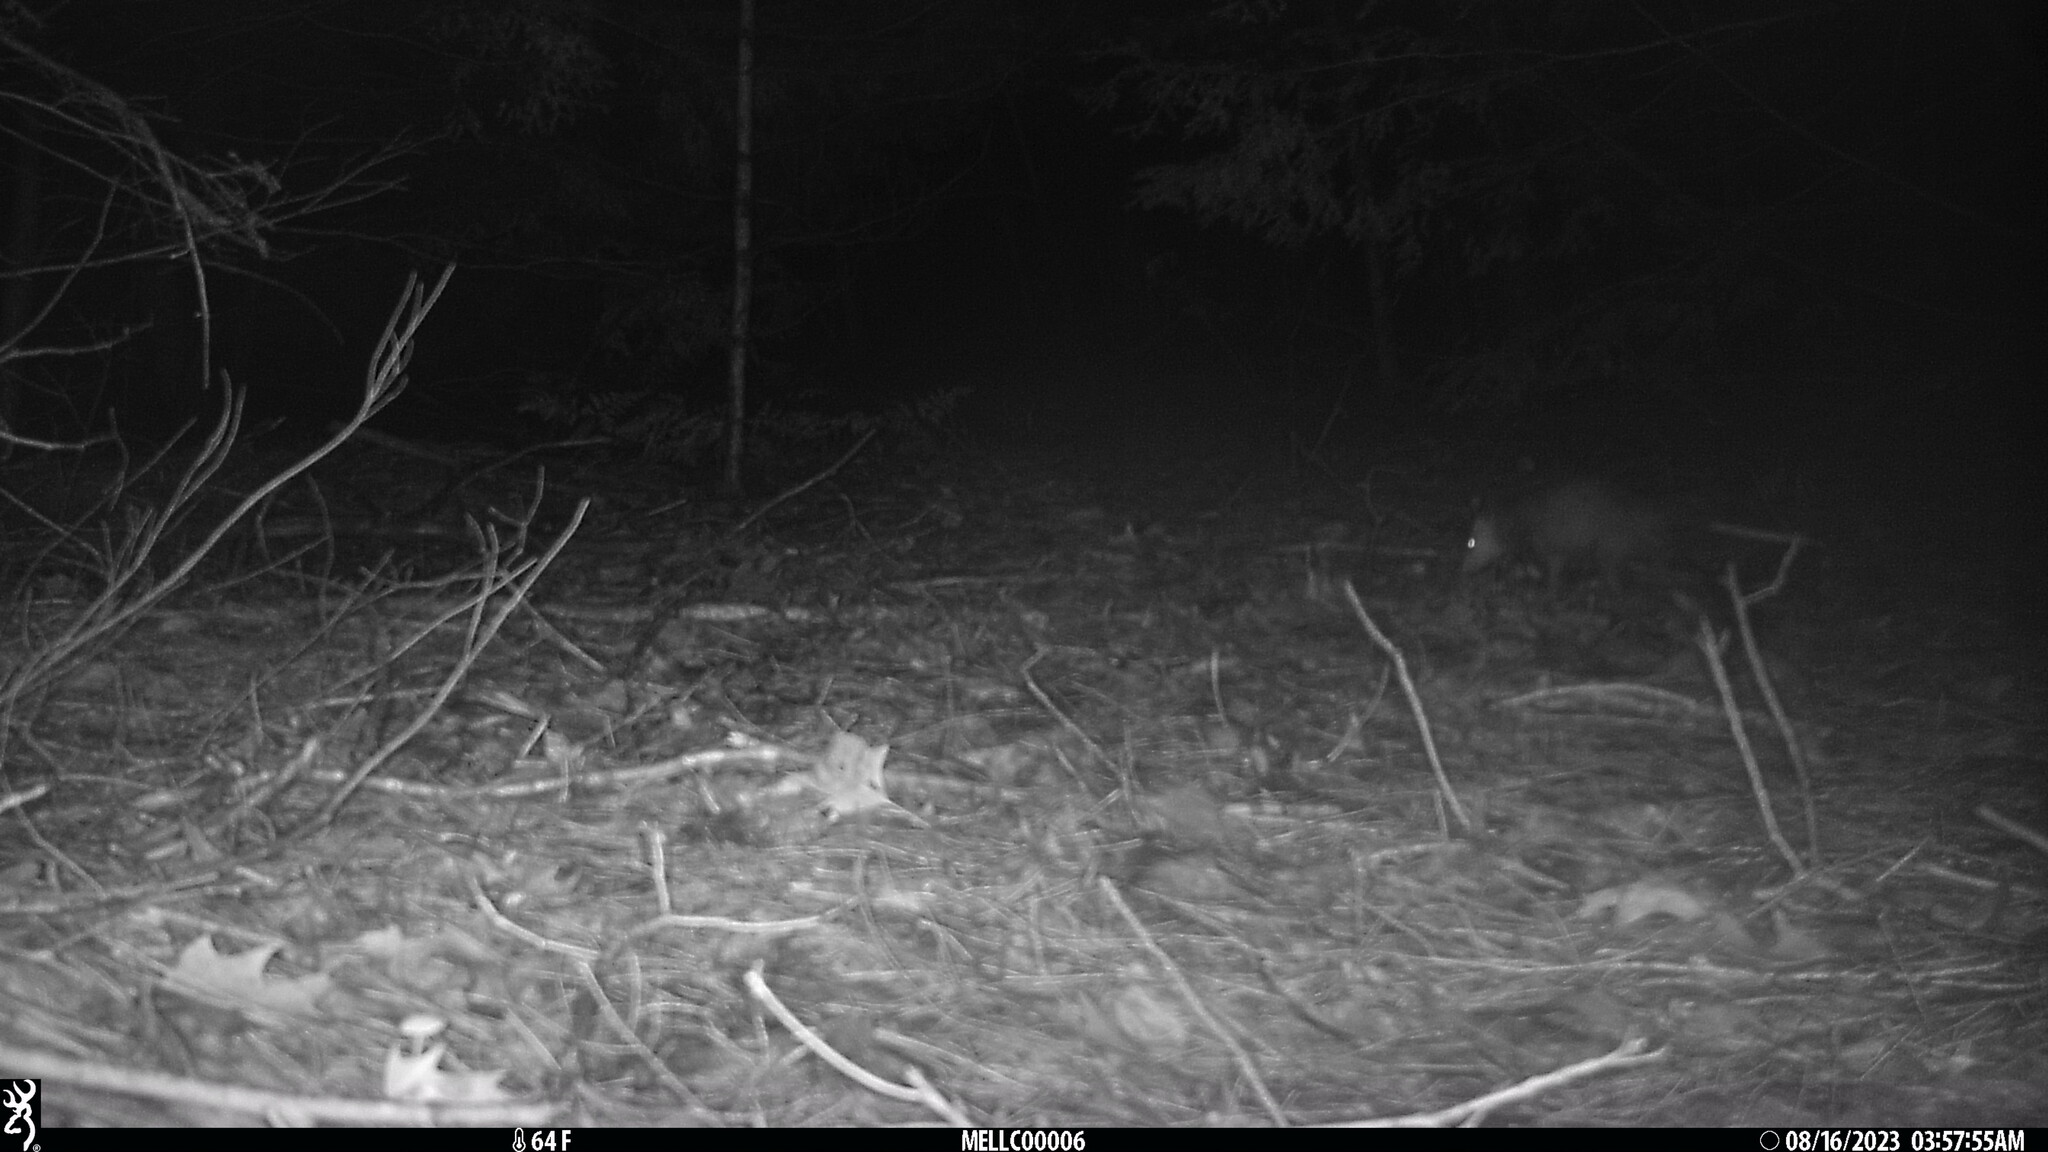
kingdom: Animalia
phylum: Chordata
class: Mammalia
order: Didelphimorphia
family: Didelphidae
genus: Didelphis
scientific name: Didelphis virginiana
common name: Virginia opossum
